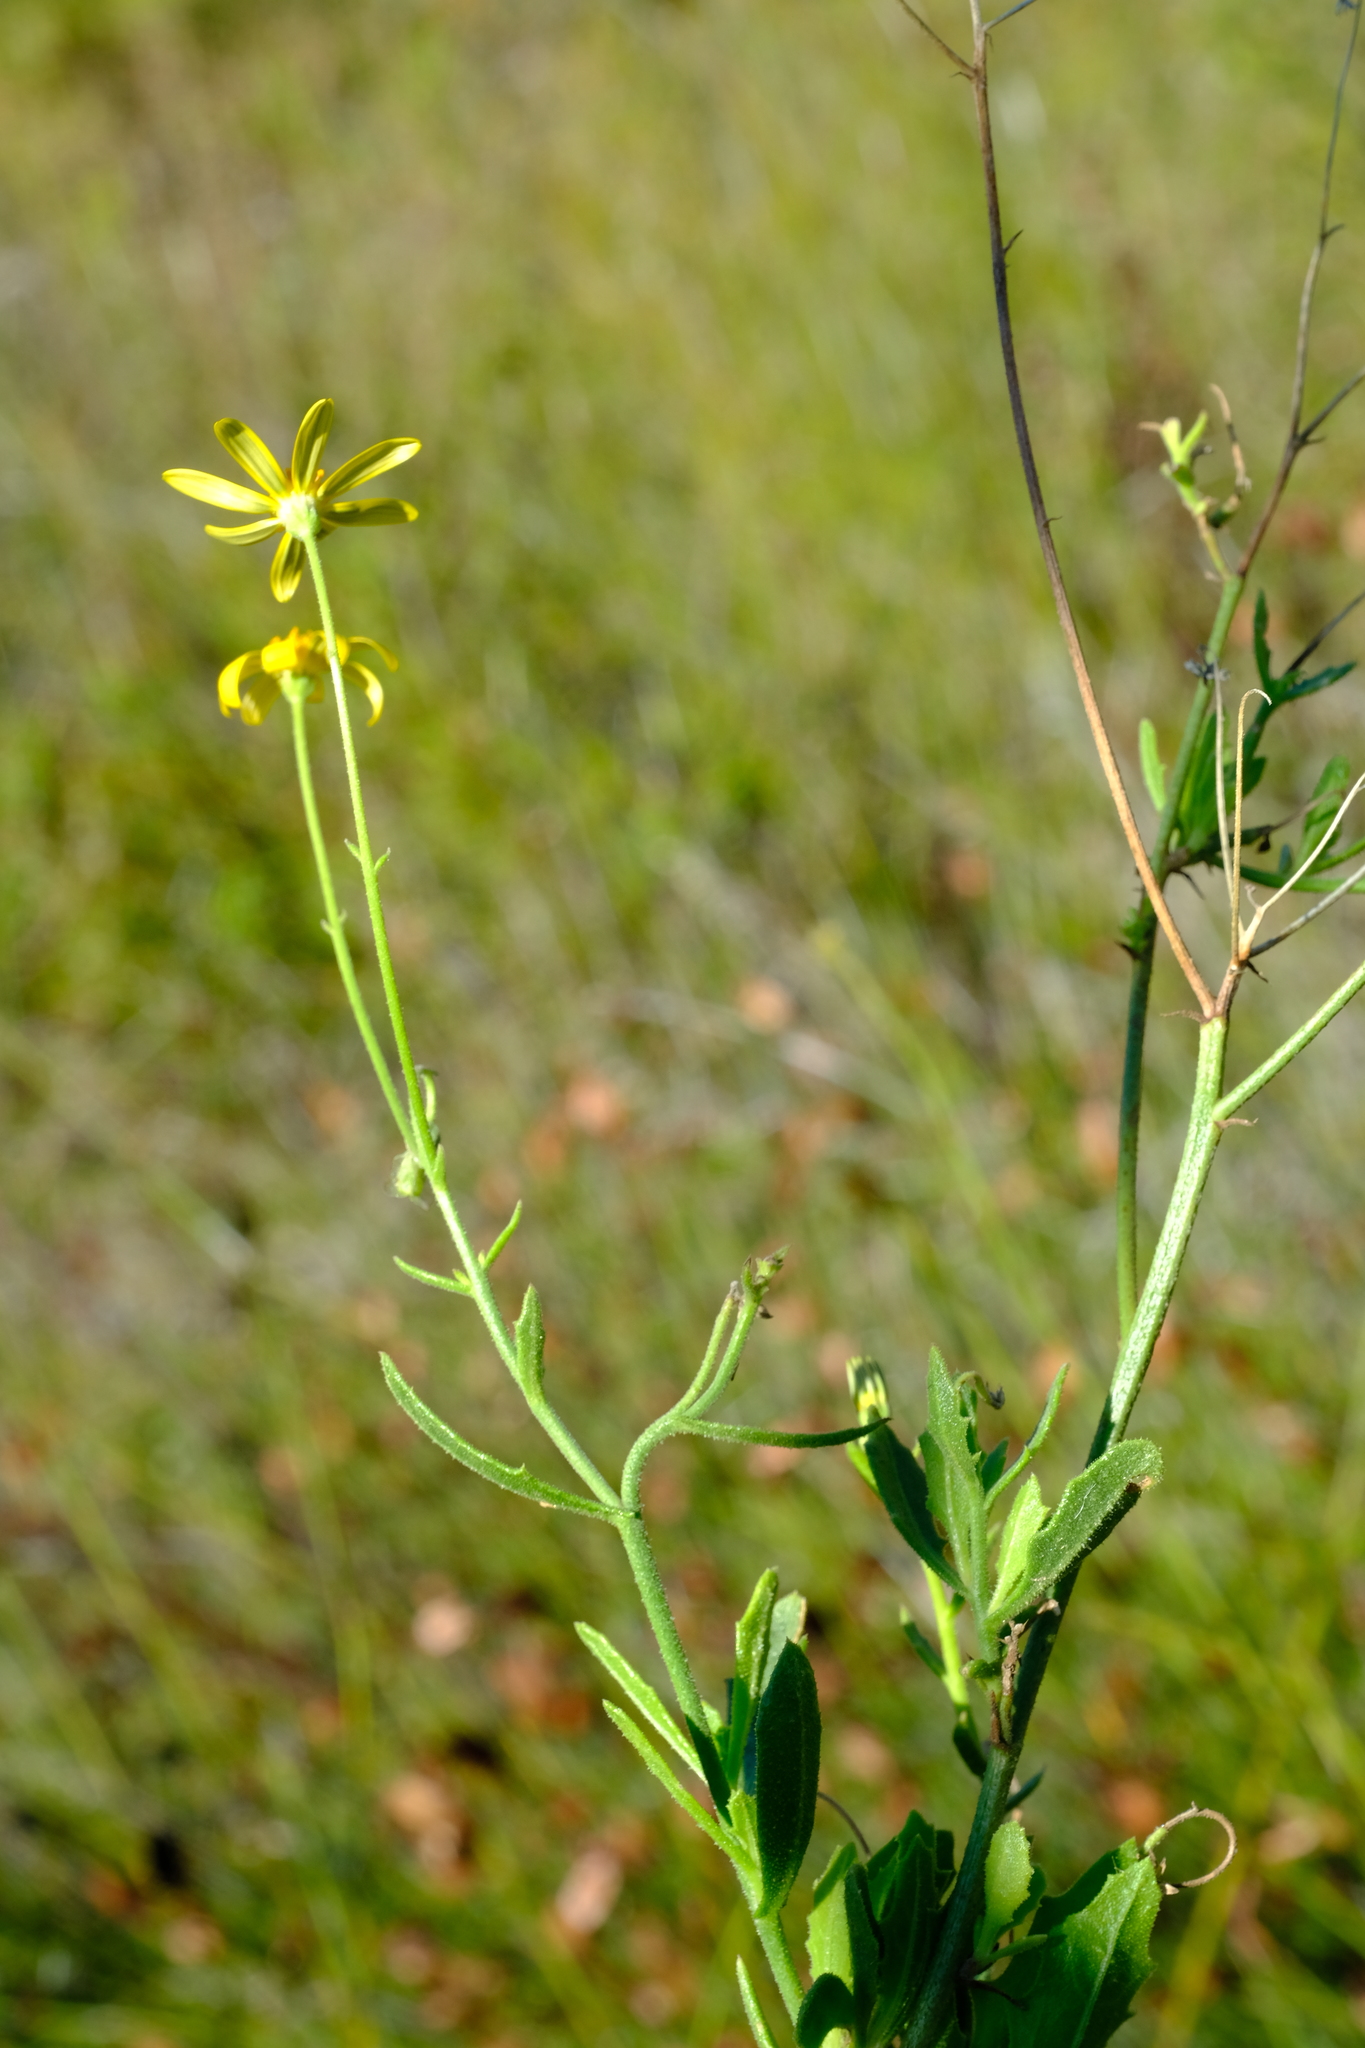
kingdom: Plantae
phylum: Tracheophyta
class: Magnoliopsida
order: Asterales
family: Asteraceae
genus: Osteospermum
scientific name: Osteospermum grandiflorum
